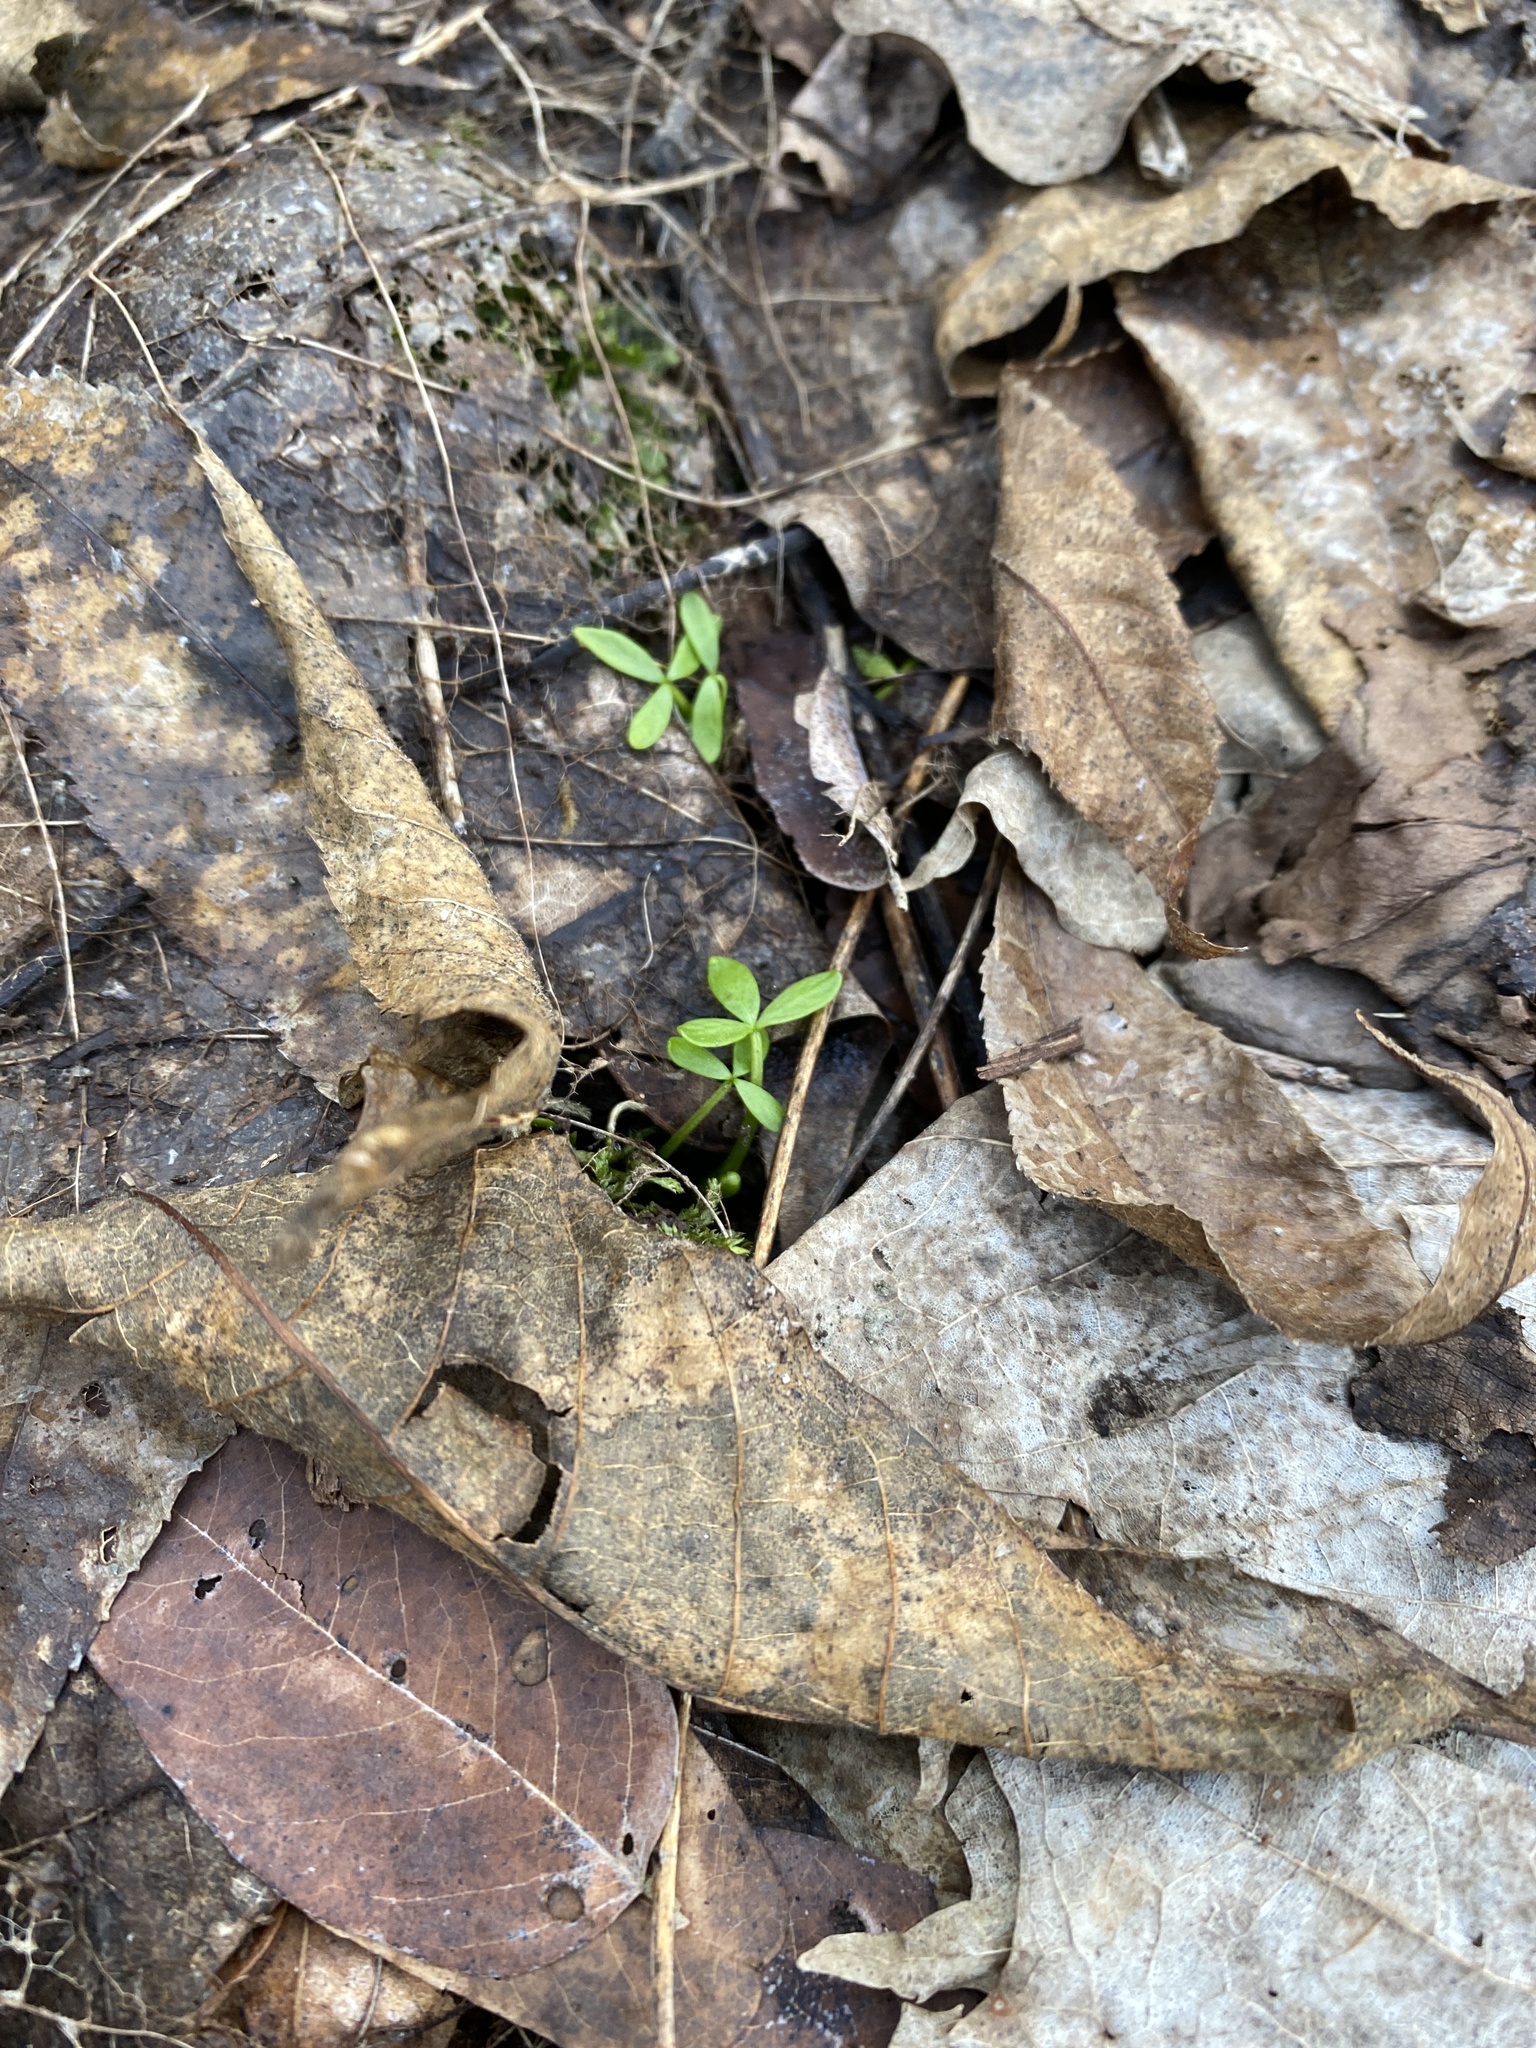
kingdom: Plantae
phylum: Tracheophyta
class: Magnoliopsida
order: Brassicales
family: Limnanthaceae
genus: Floerkea
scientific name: Floerkea proserpinacoides
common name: False mermaid
